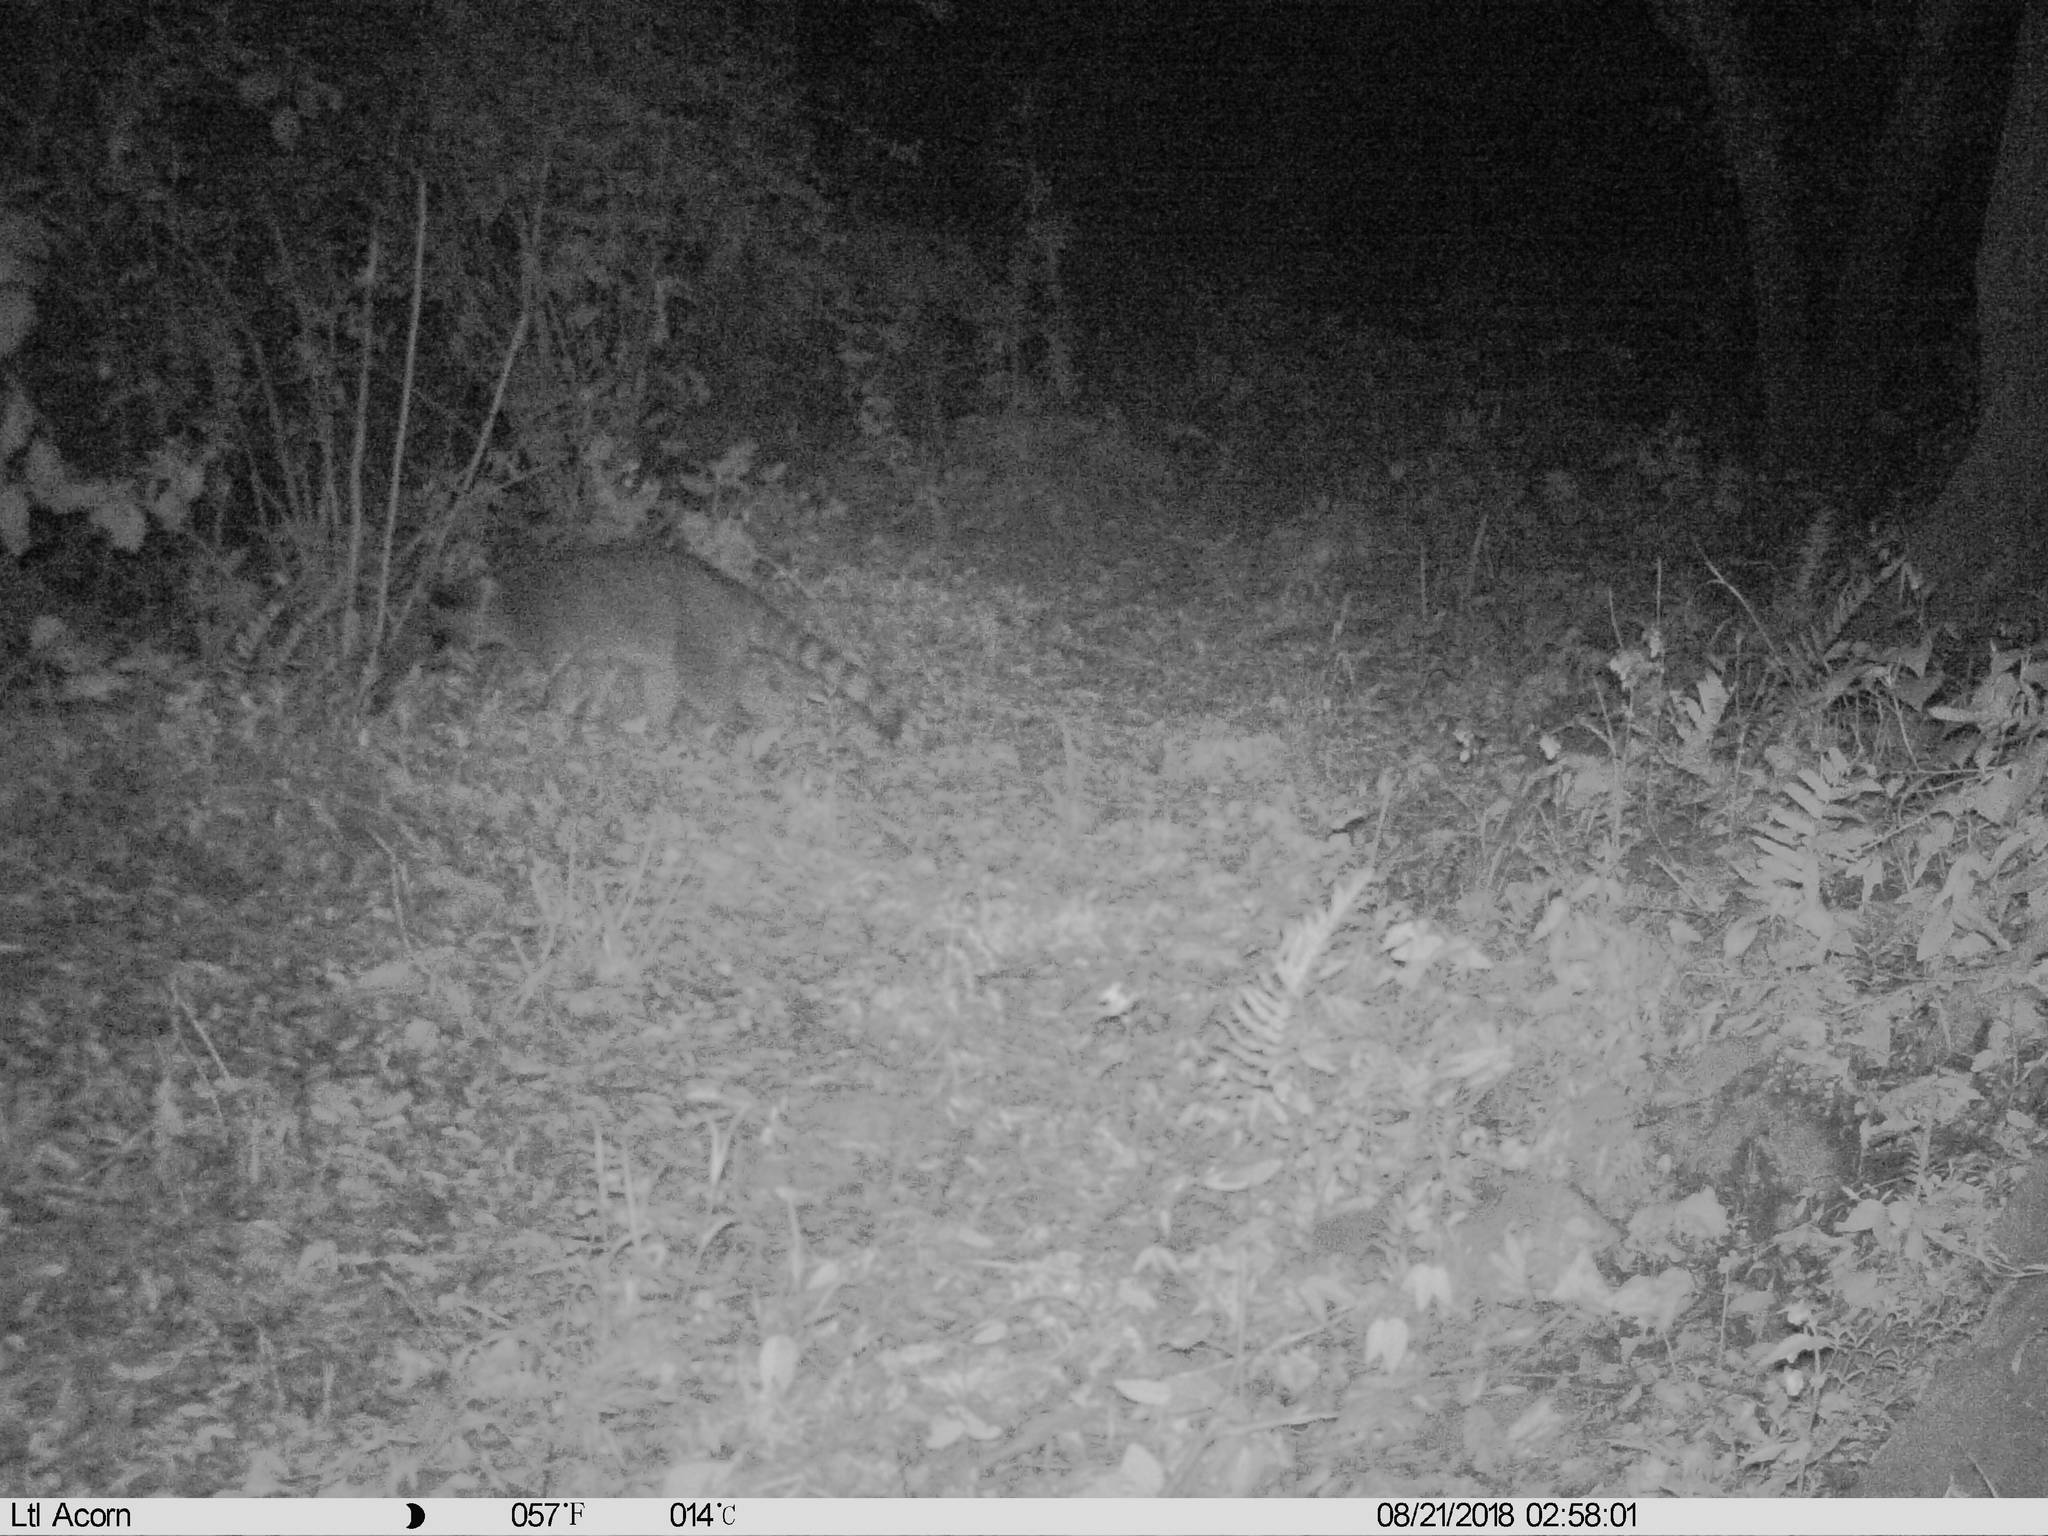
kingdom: Animalia
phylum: Chordata
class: Mammalia
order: Carnivora
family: Procyonidae
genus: Procyon
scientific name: Procyon lotor
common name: Raccoon
